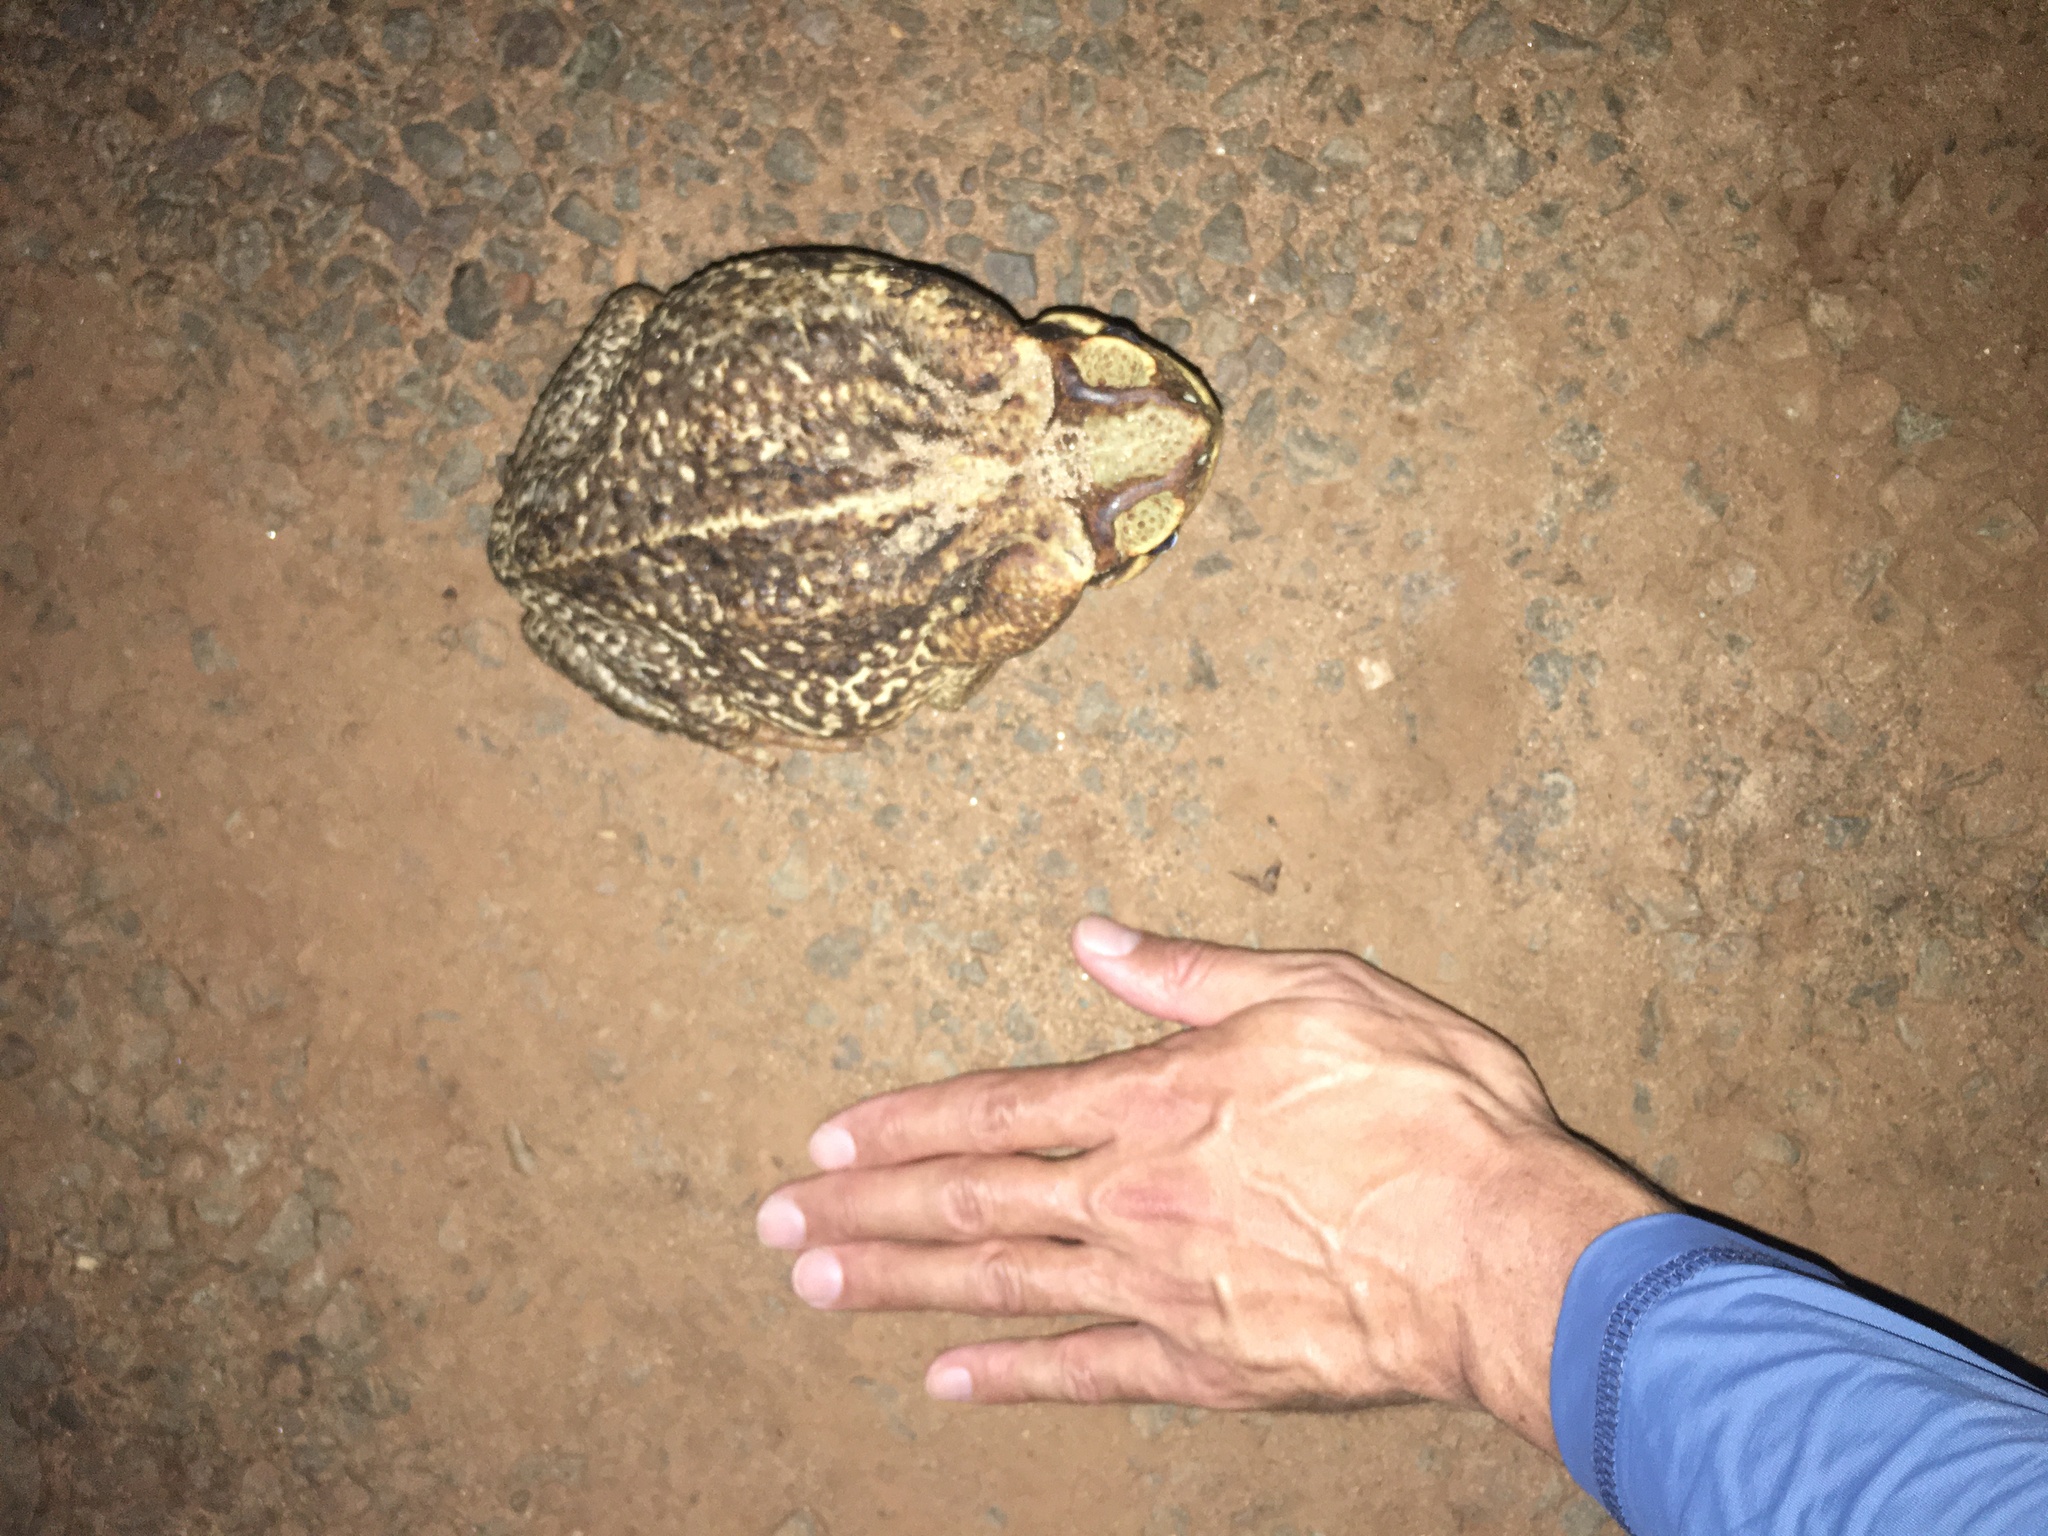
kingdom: Animalia
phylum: Chordata
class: Amphibia
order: Anura
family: Bufonidae
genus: Rhinella
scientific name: Rhinella diptycha
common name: Cope's toad
